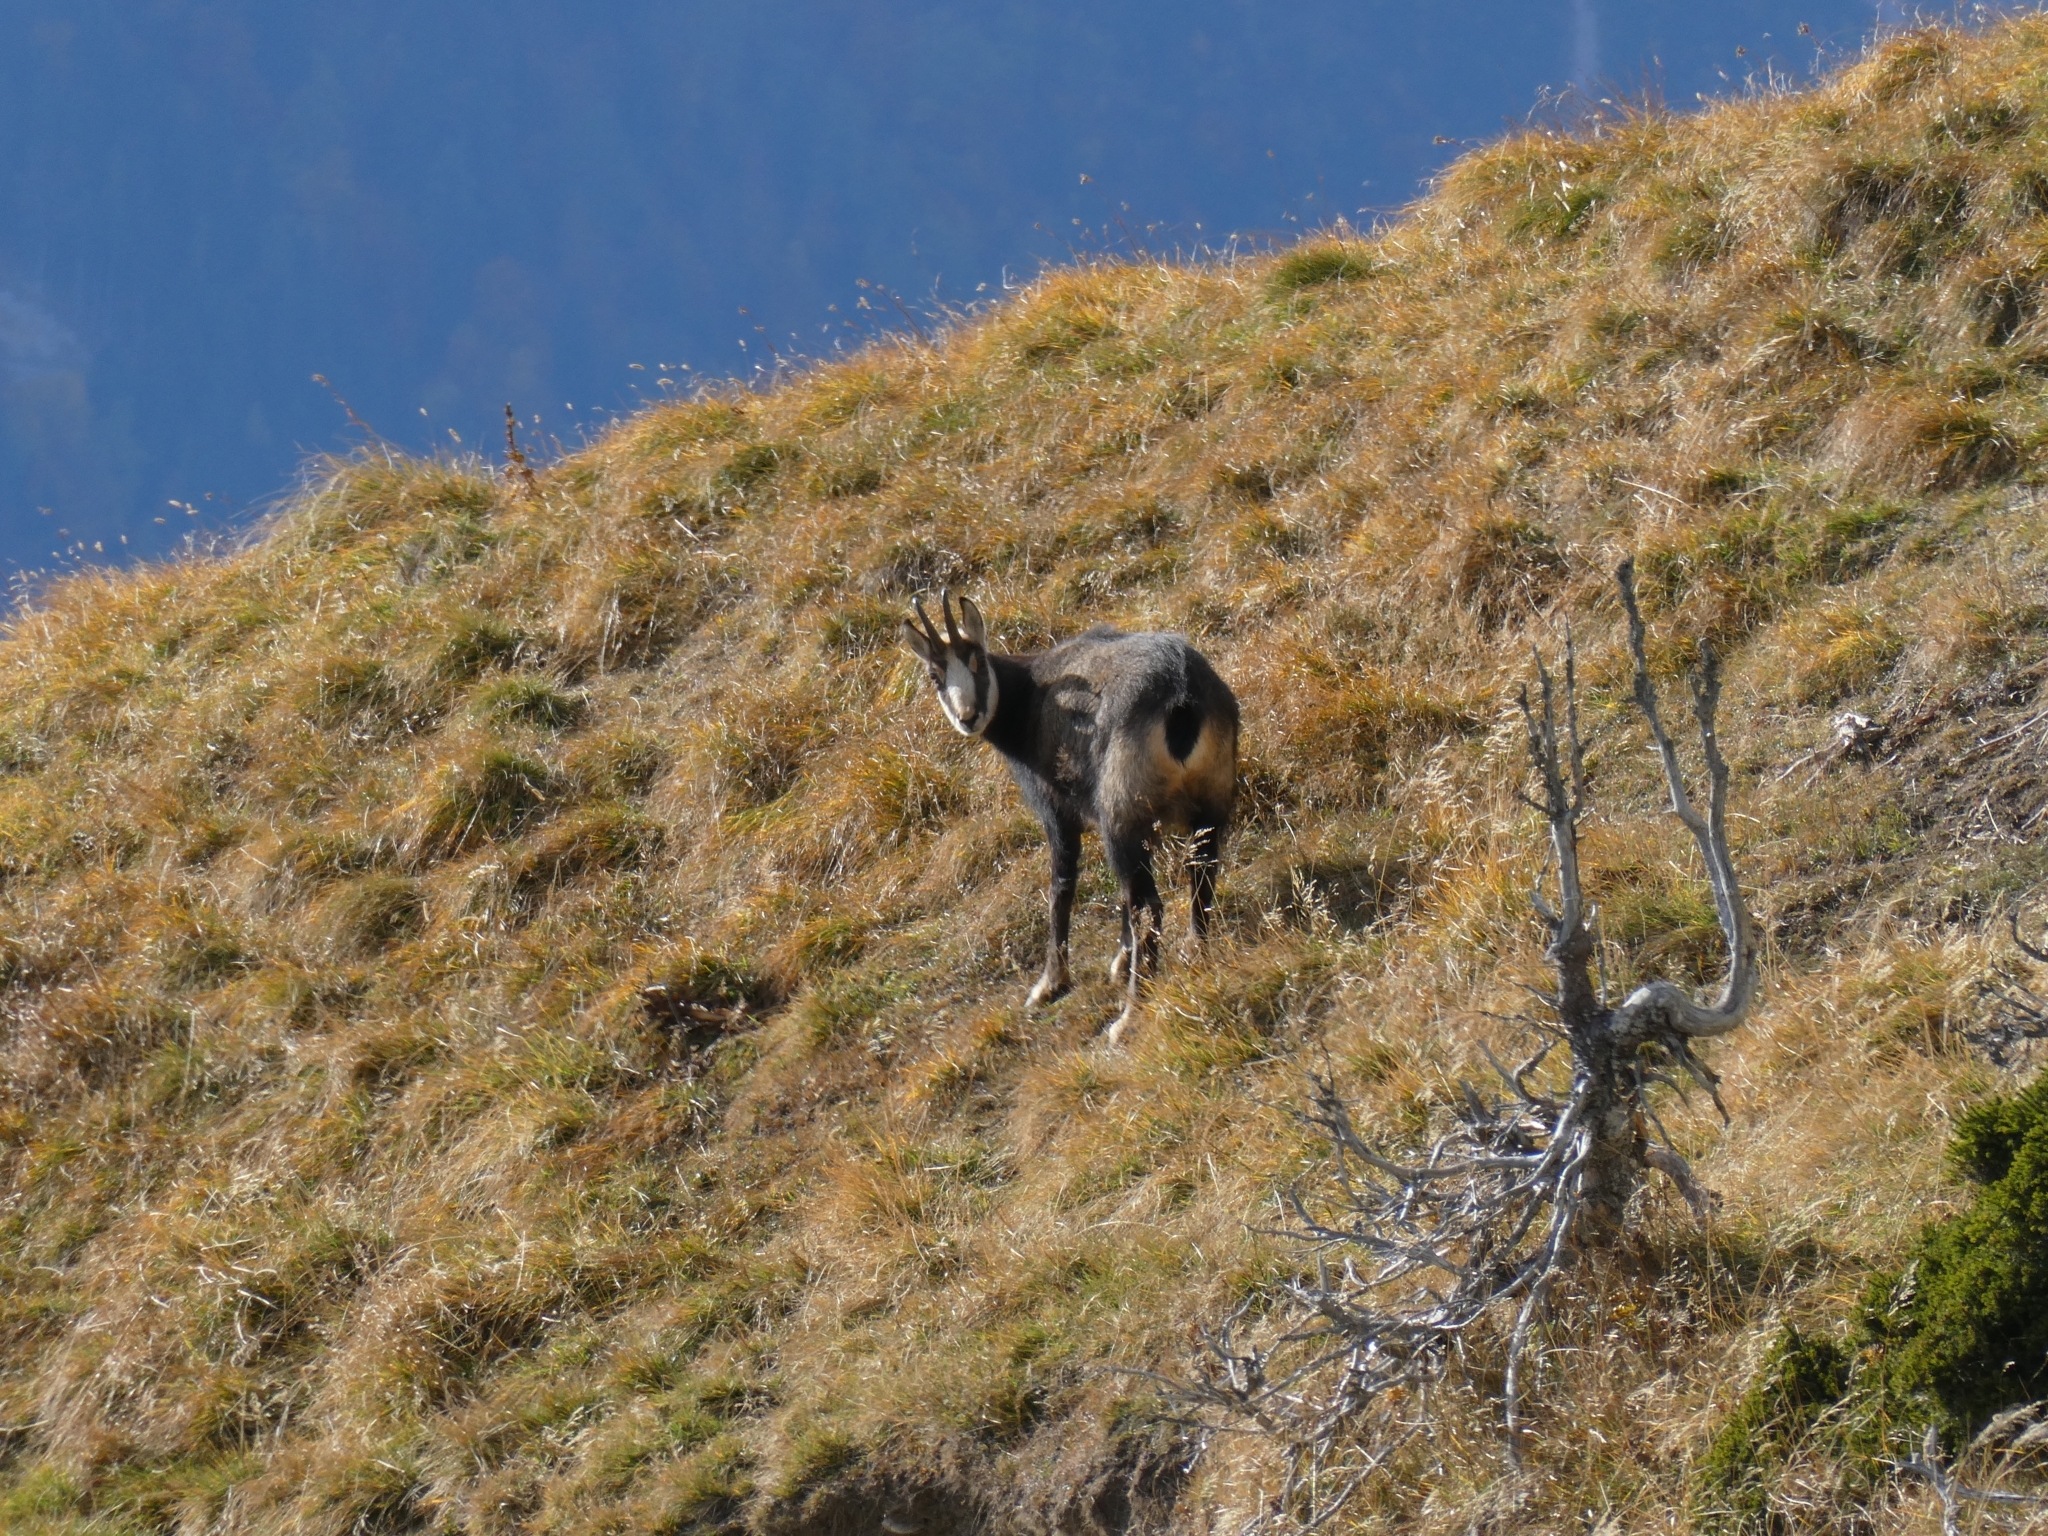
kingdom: Animalia
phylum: Chordata
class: Mammalia
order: Artiodactyla
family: Bovidae
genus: Rupicapra
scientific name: Rupicapra rupicapra
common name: Chamois
